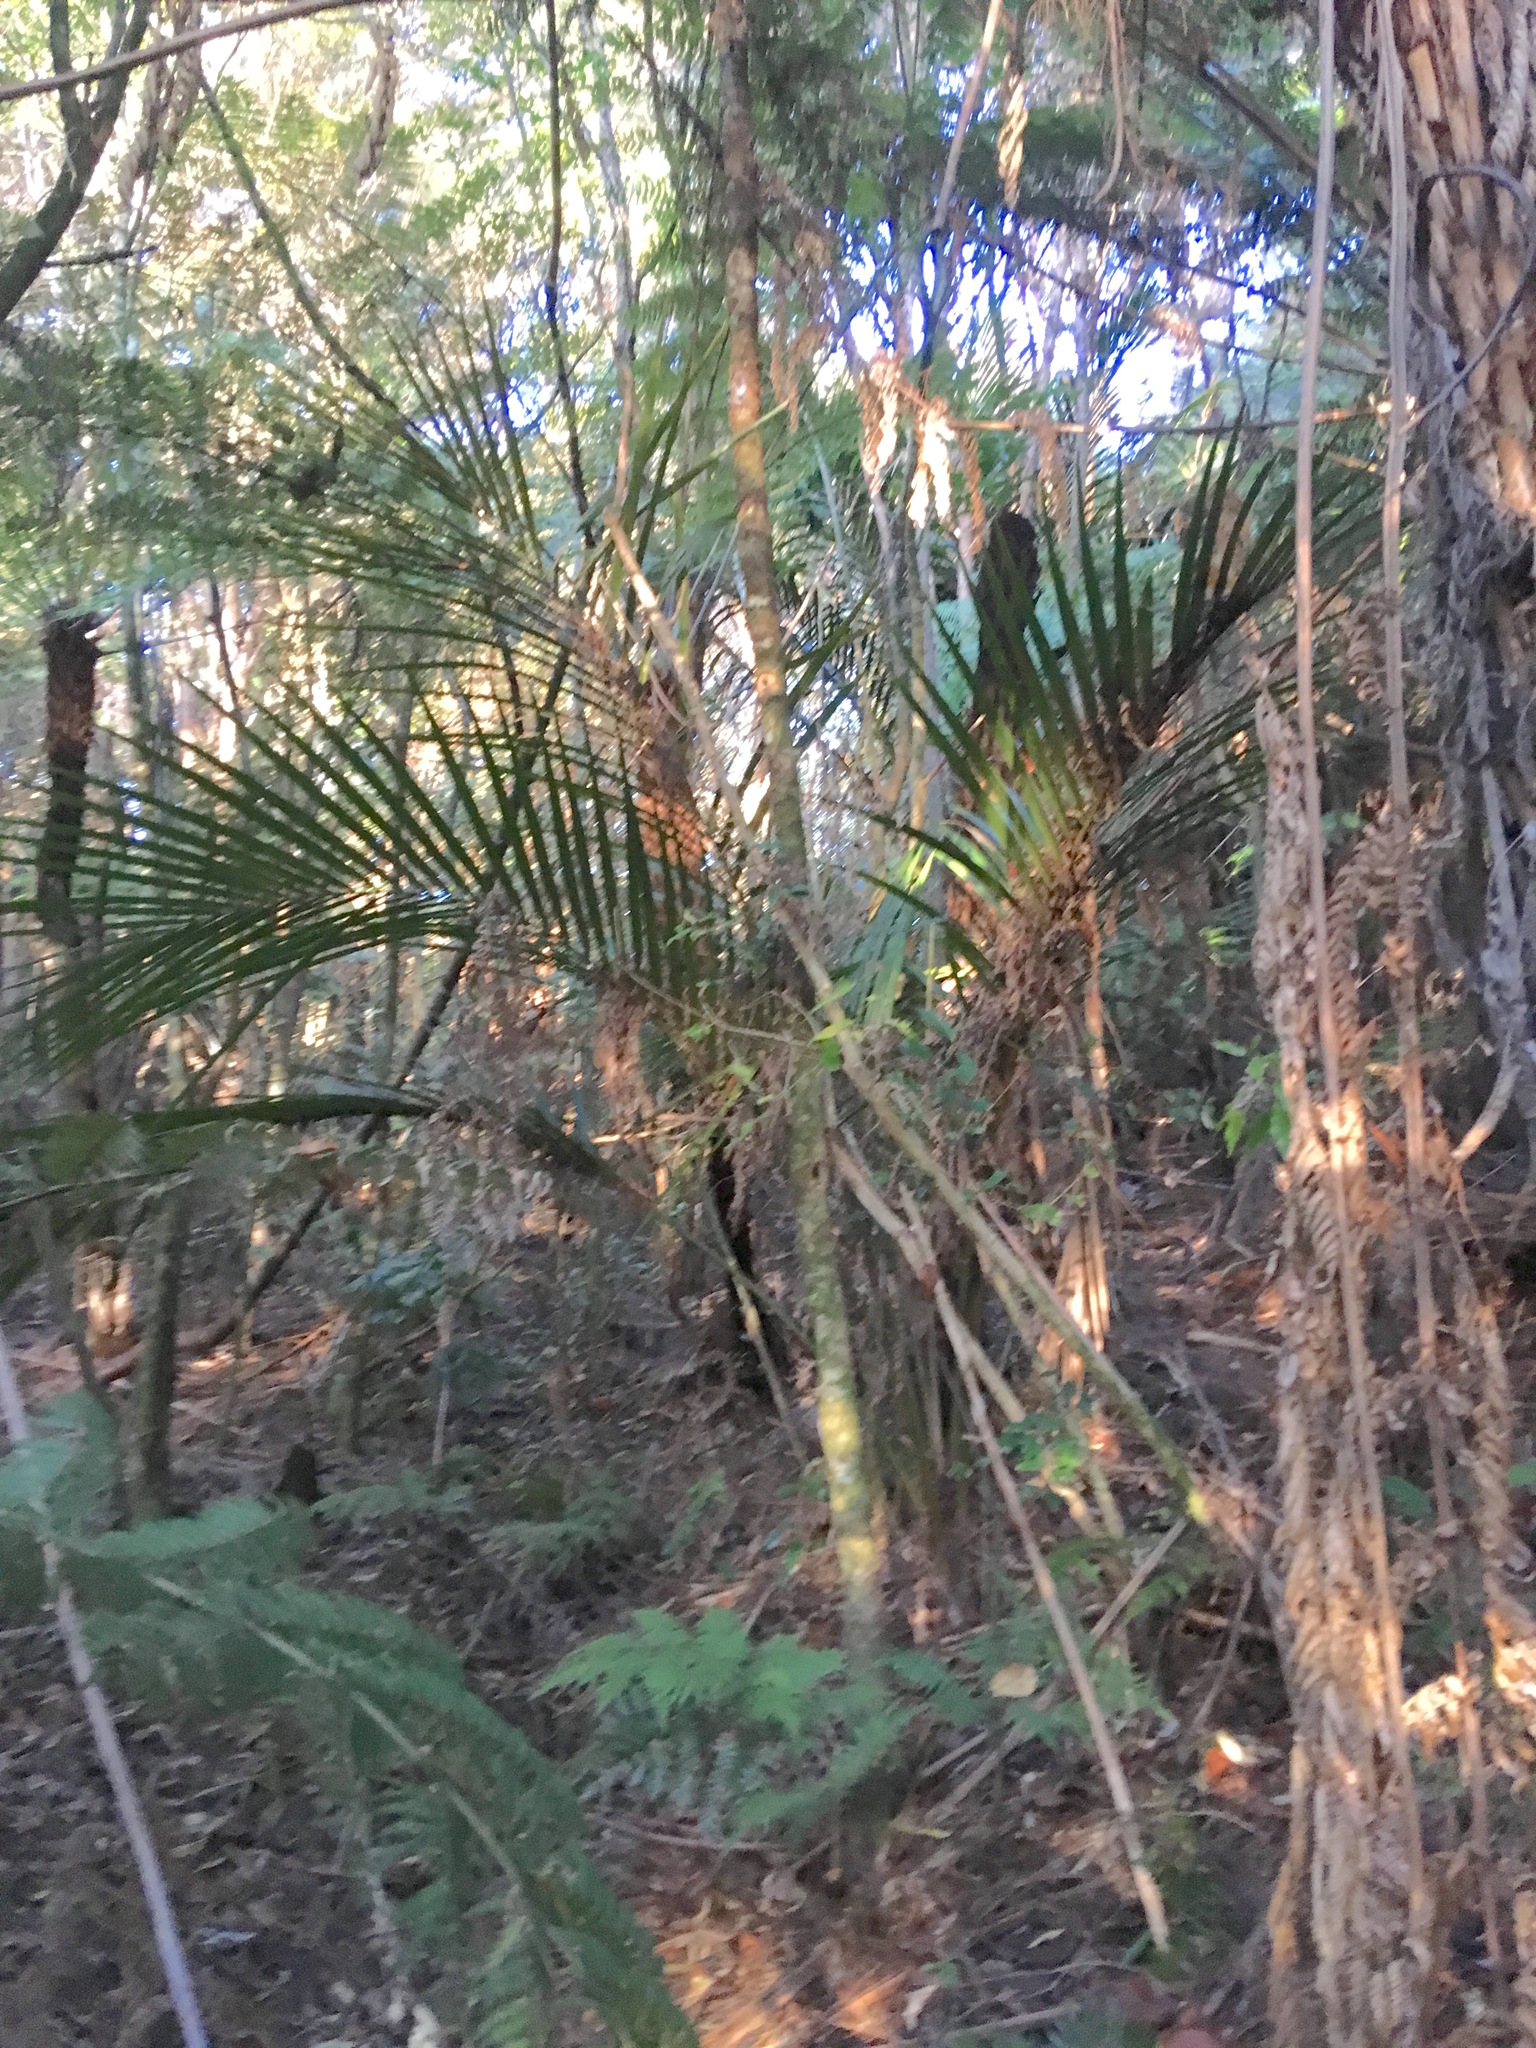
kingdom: Plantae
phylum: Tracheophyta
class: Liliopsida
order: Arecales
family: Arecaceae
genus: Rhopalostylis
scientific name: Rhopalostylis sapida
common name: Feather-duster palm
